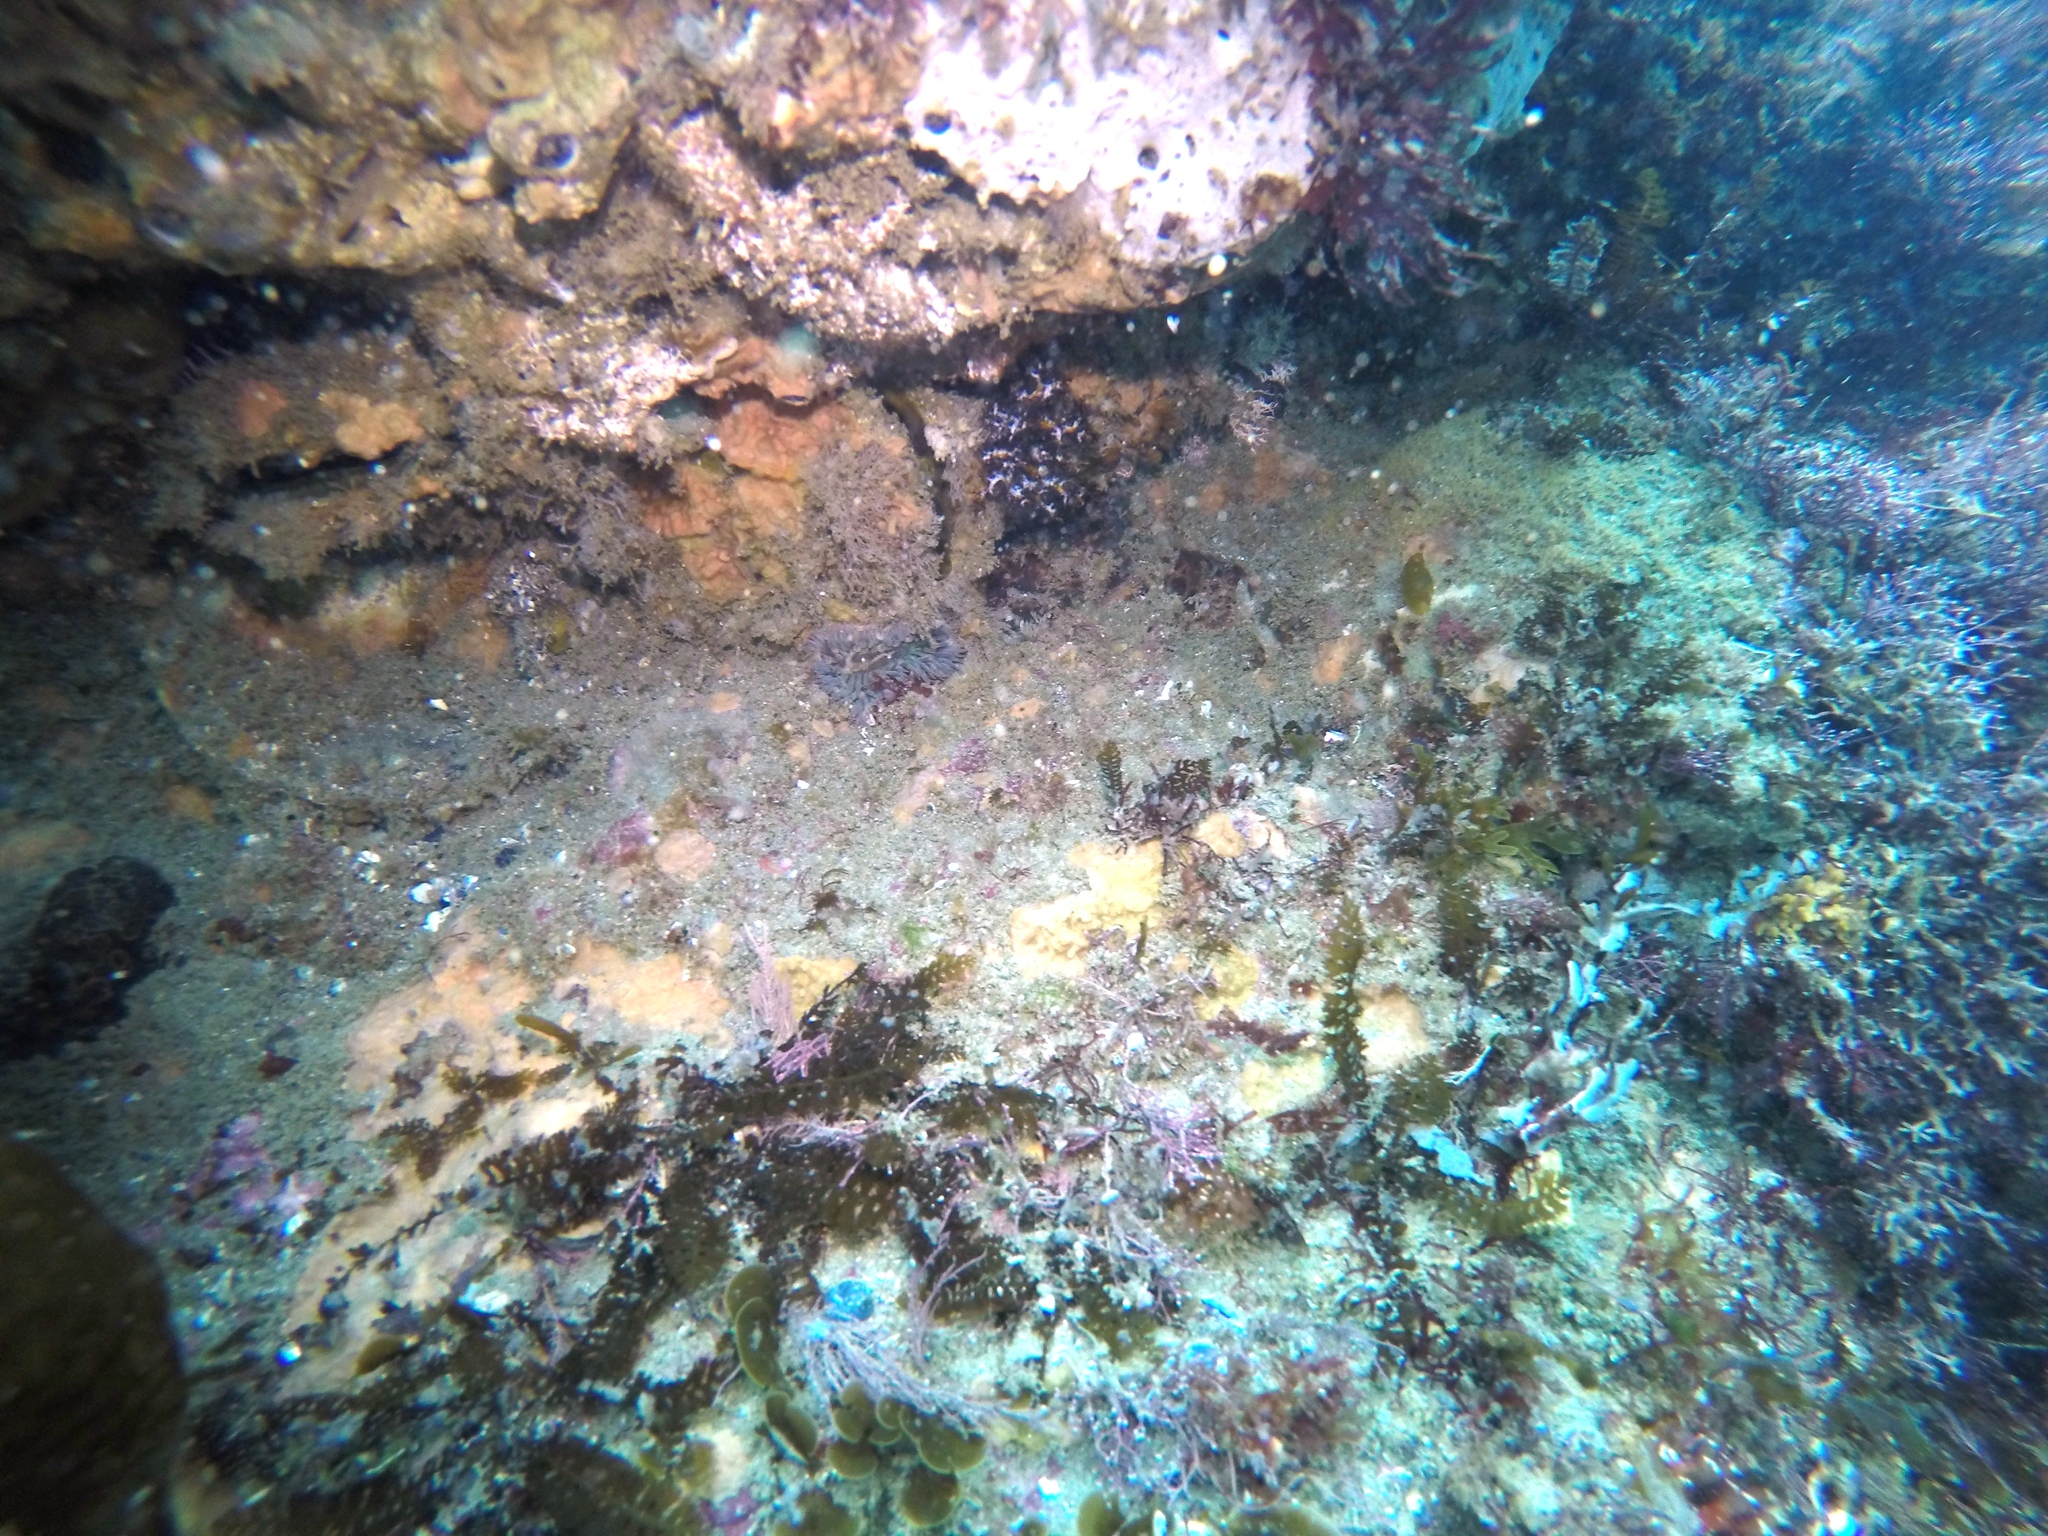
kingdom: Animalia
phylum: Cnidaria
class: Anthozoa
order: Actiniaria
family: Actiniidae
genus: Anthopleura
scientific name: Anthopleura sola
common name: Sun anemone
